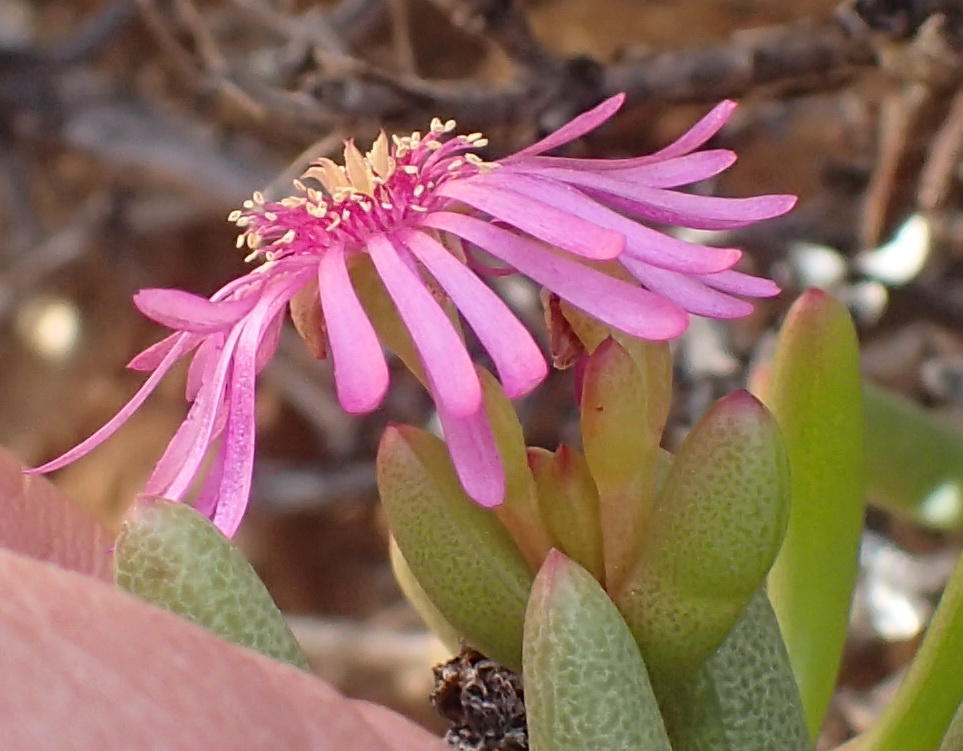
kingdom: Plantae
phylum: Tracheophyta
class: Magnoliopsida
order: Caryophyllales
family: Aizoaceae
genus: Ruschia
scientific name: Ruschia viridifolia
